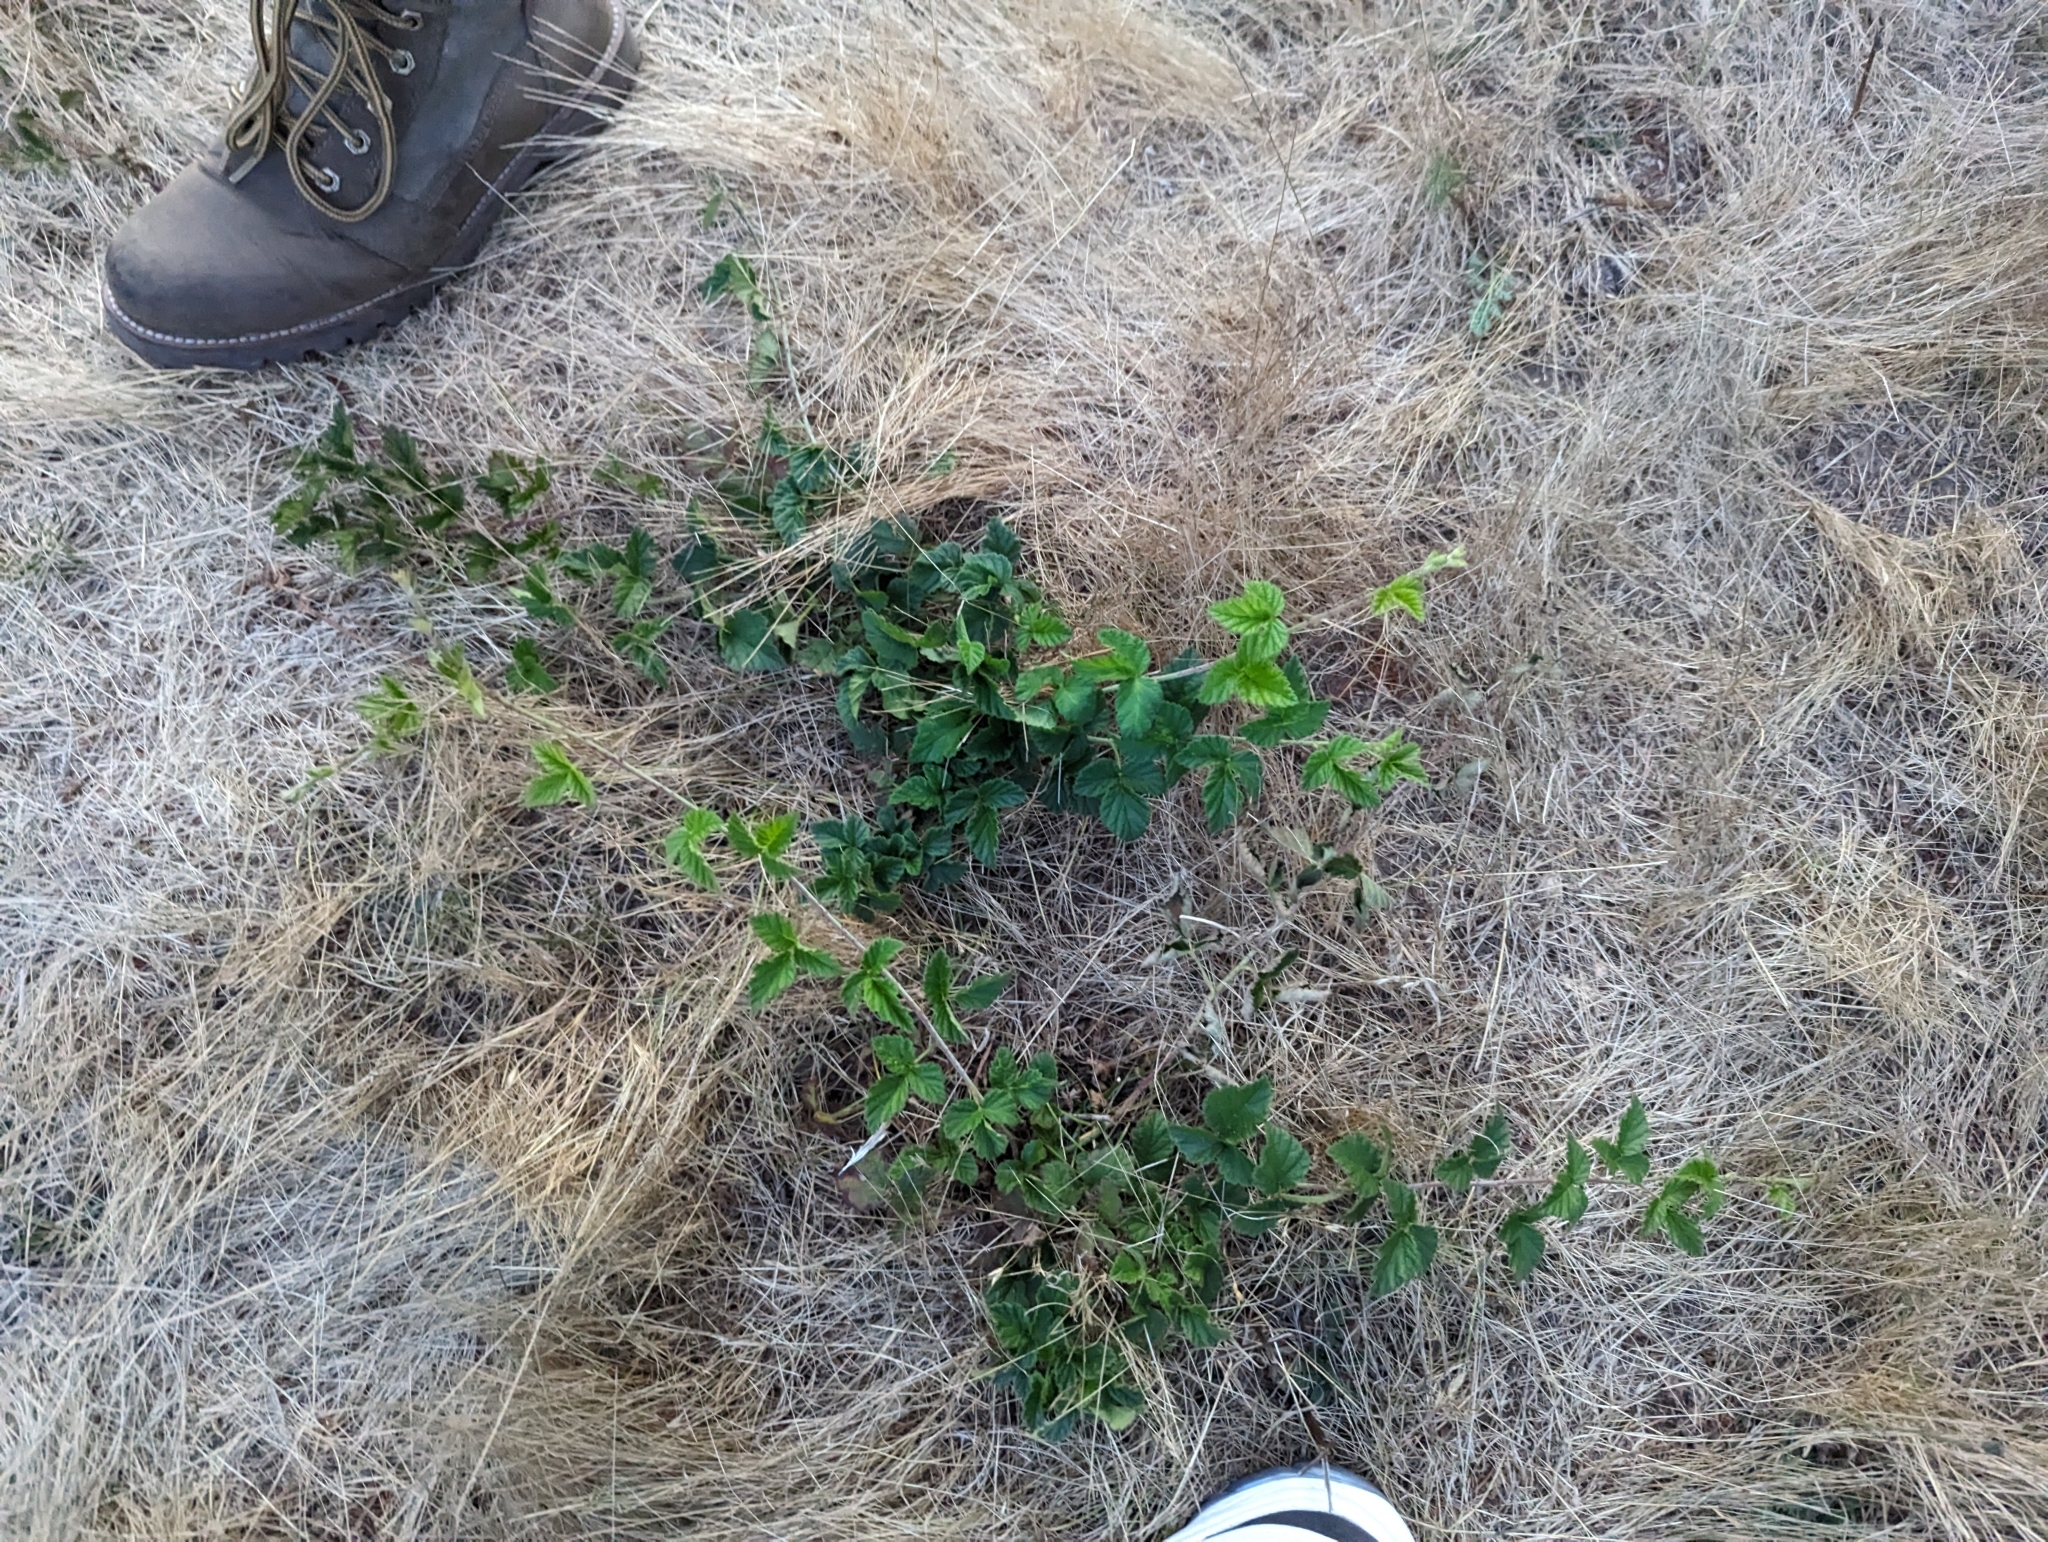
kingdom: Plantae
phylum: Tracheophyta
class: Magnoliopsida
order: Rosales
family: Rosaceae
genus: Rubus
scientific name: Rubus ursinus
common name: Pacific blackberry
